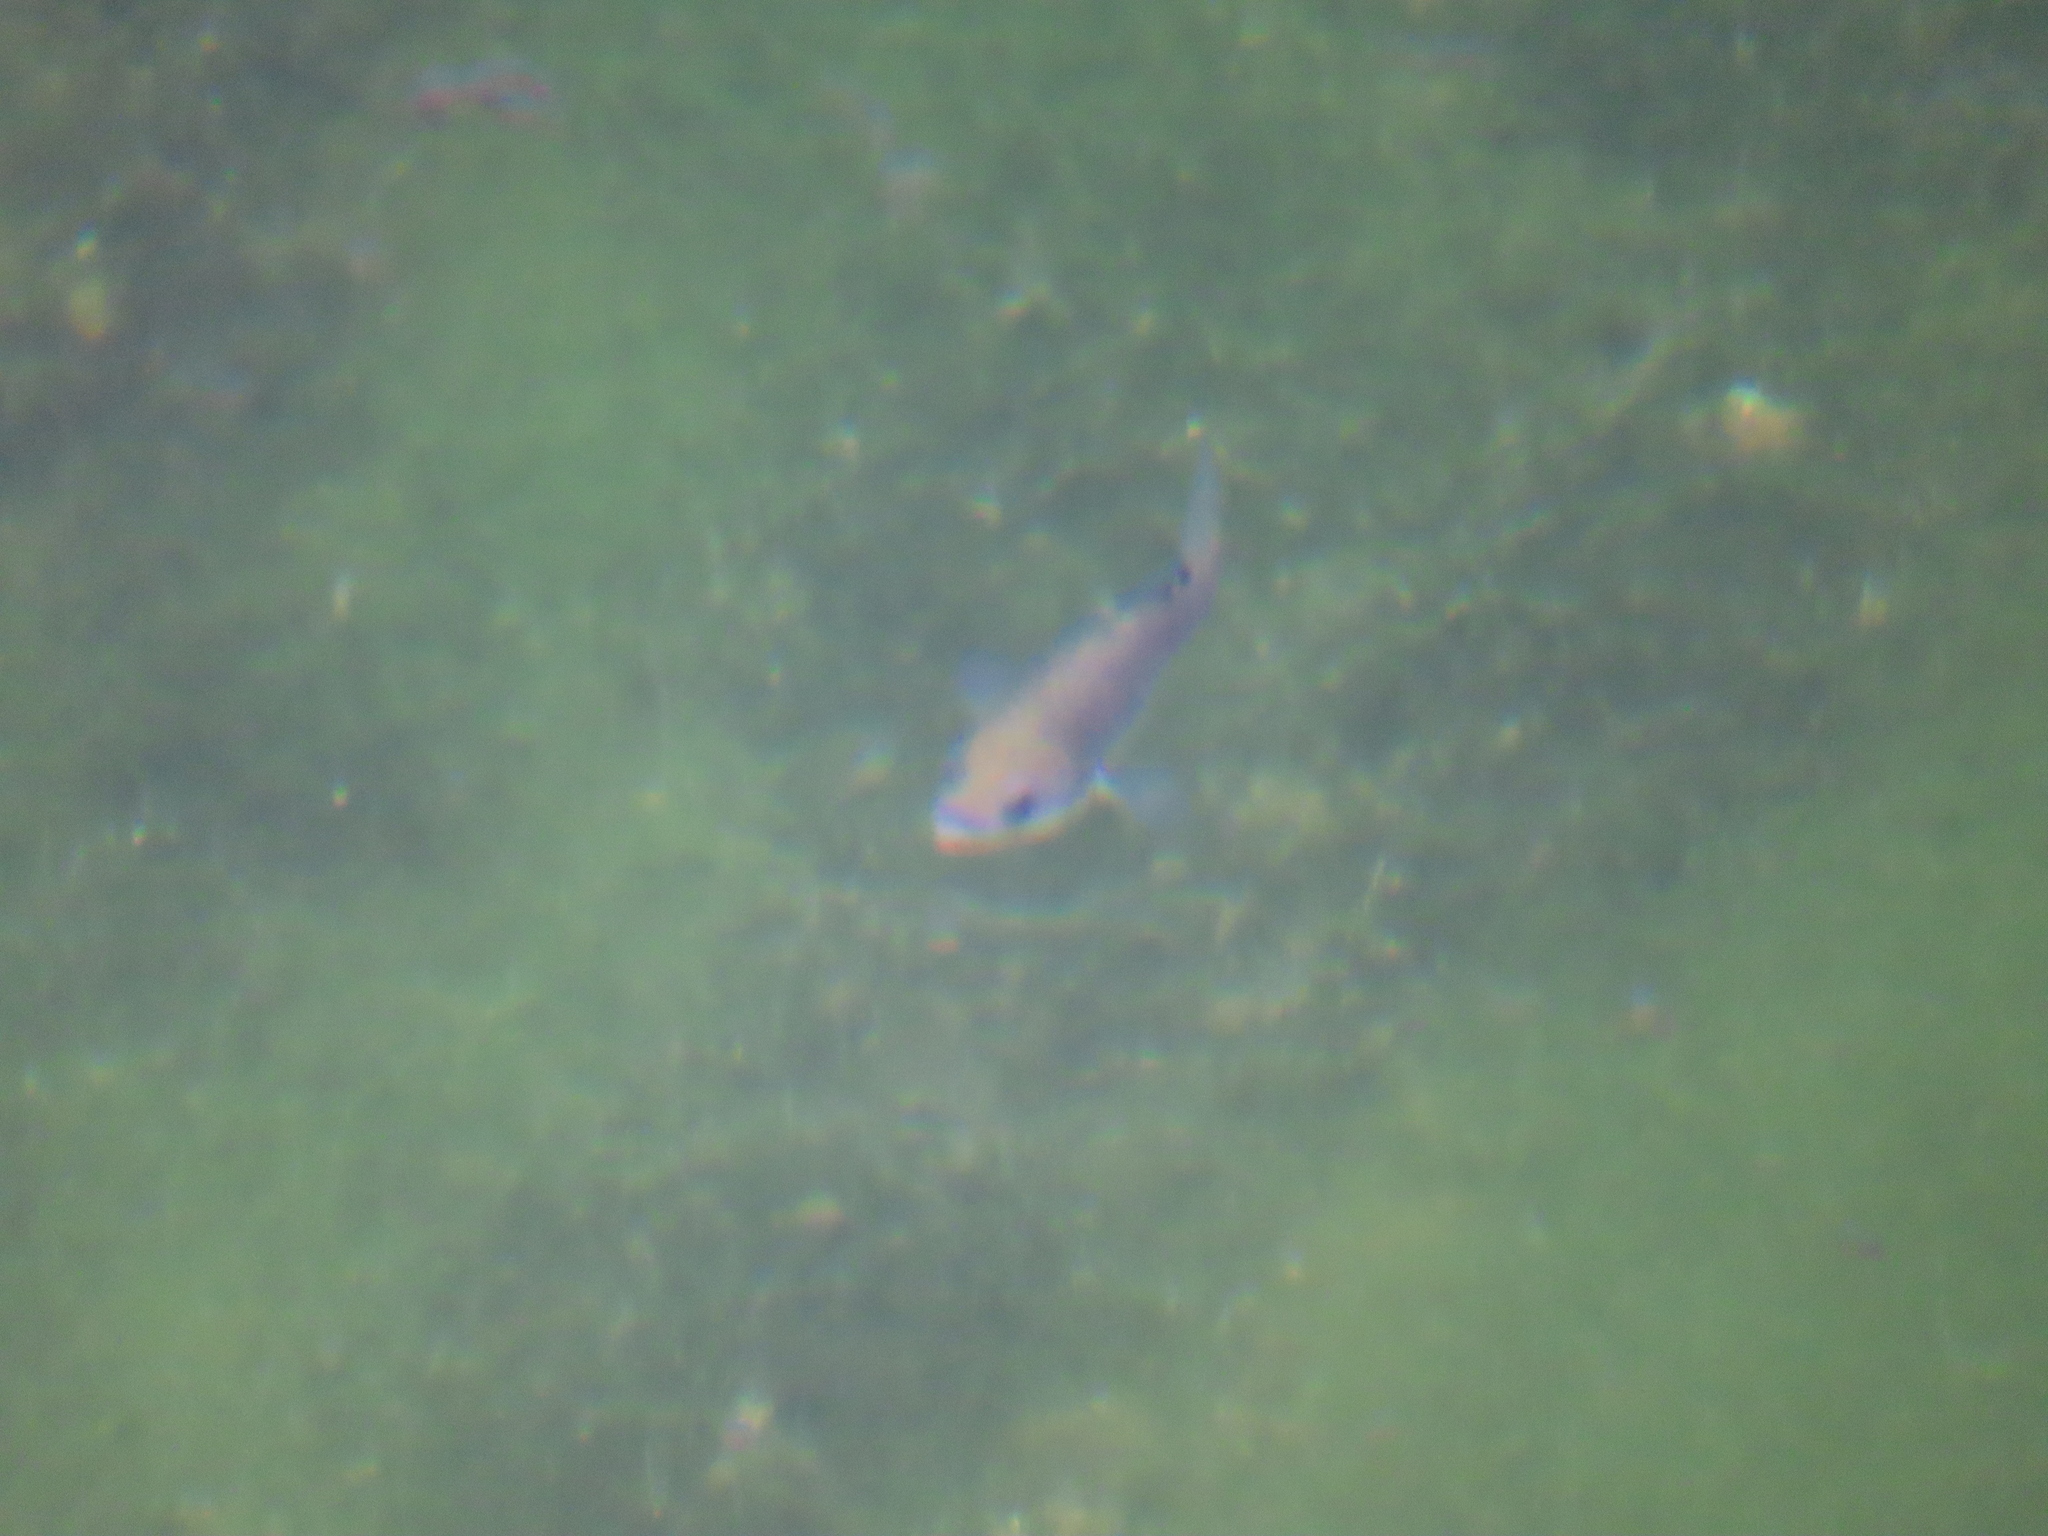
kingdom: Animalia
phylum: Chordata
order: Cyprinodontiformes
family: Cyprinodontidae
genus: Cyprinodon
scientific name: Cyprinodon nevadensis
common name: Amargosa pupfish
